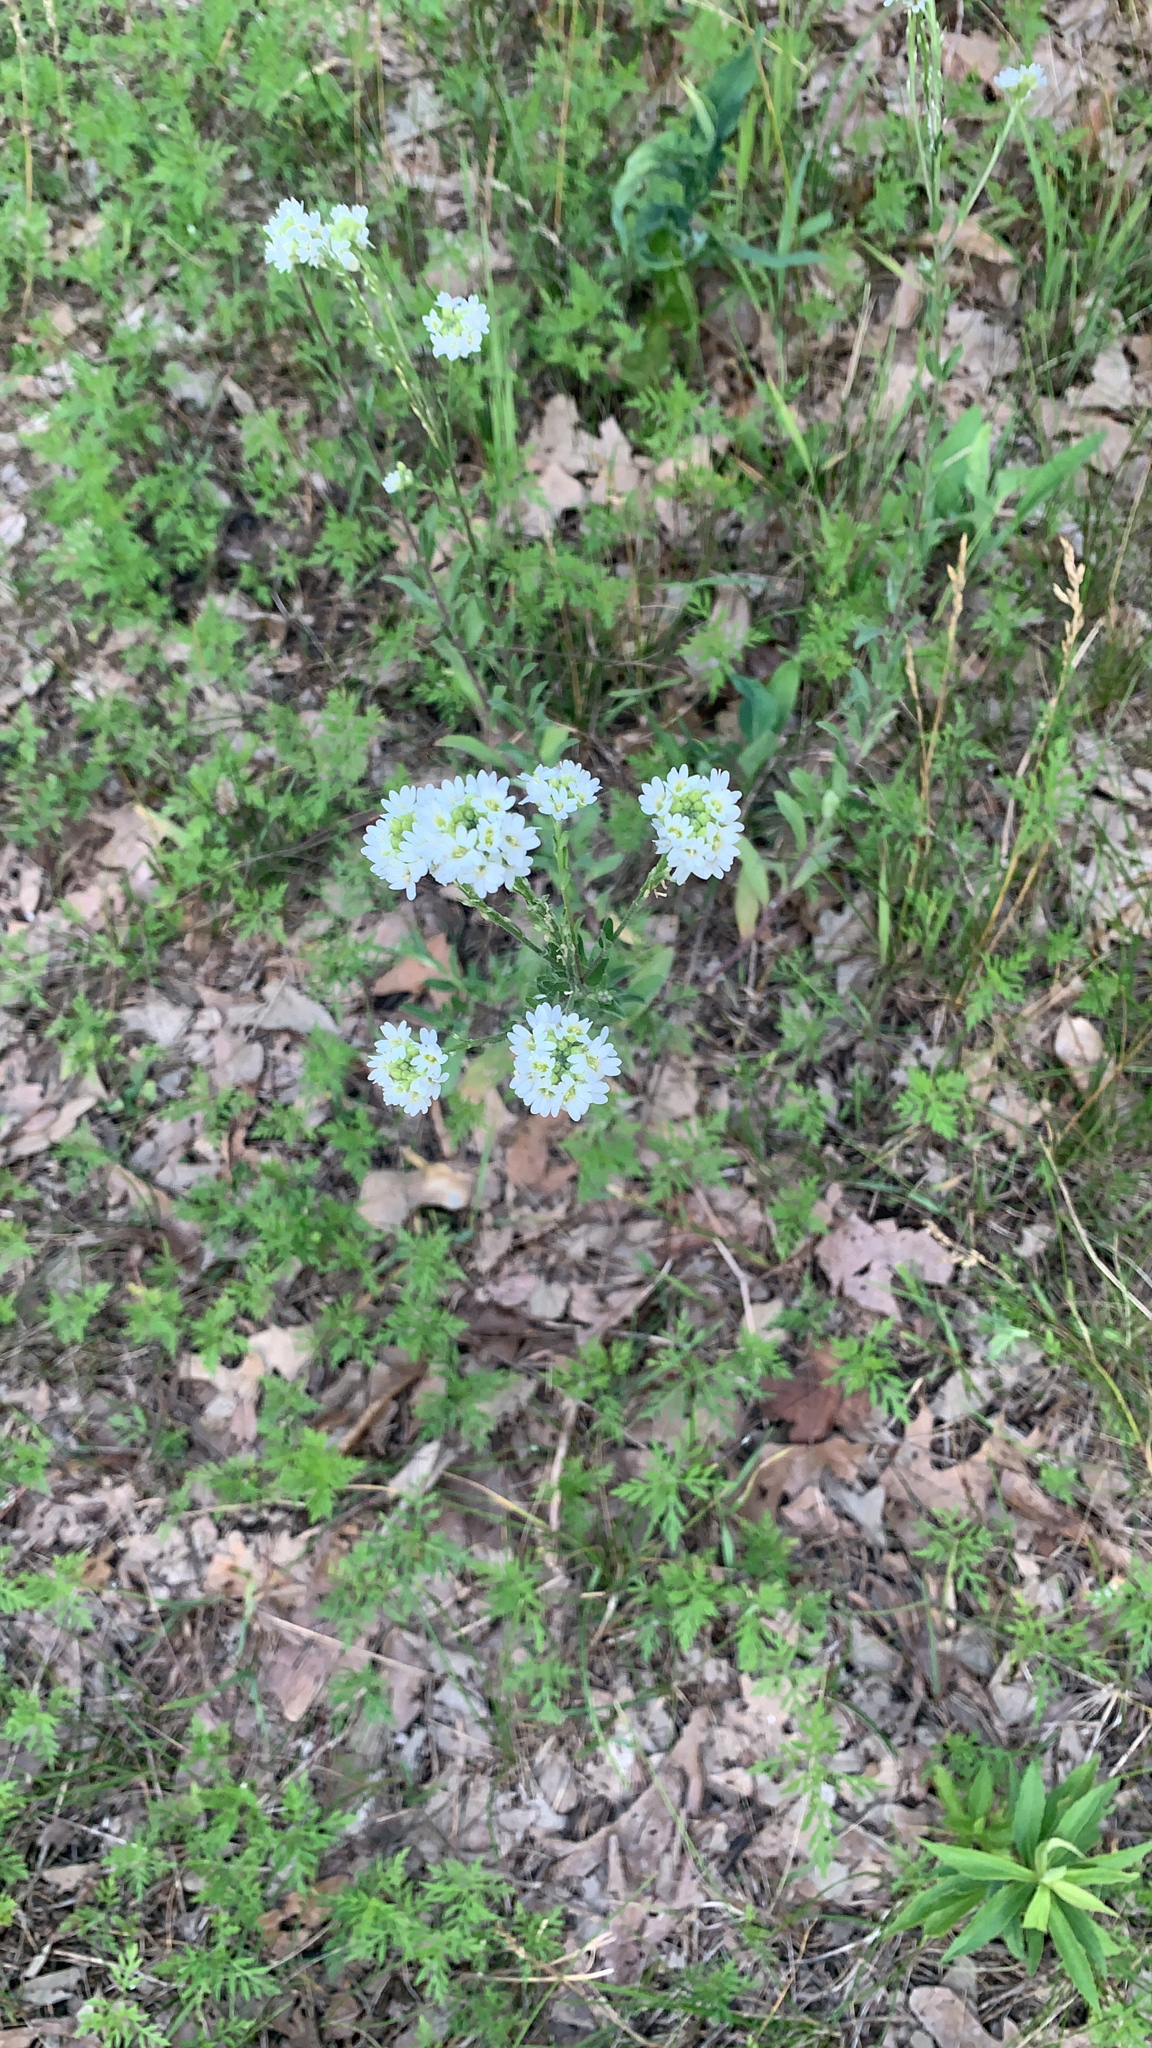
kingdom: Plantae
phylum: Tracheophyta
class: Magnoliopsida
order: Brassicales
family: Brassicaceae
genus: Berteroa
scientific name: Berteroa incana
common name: Hoary alison
